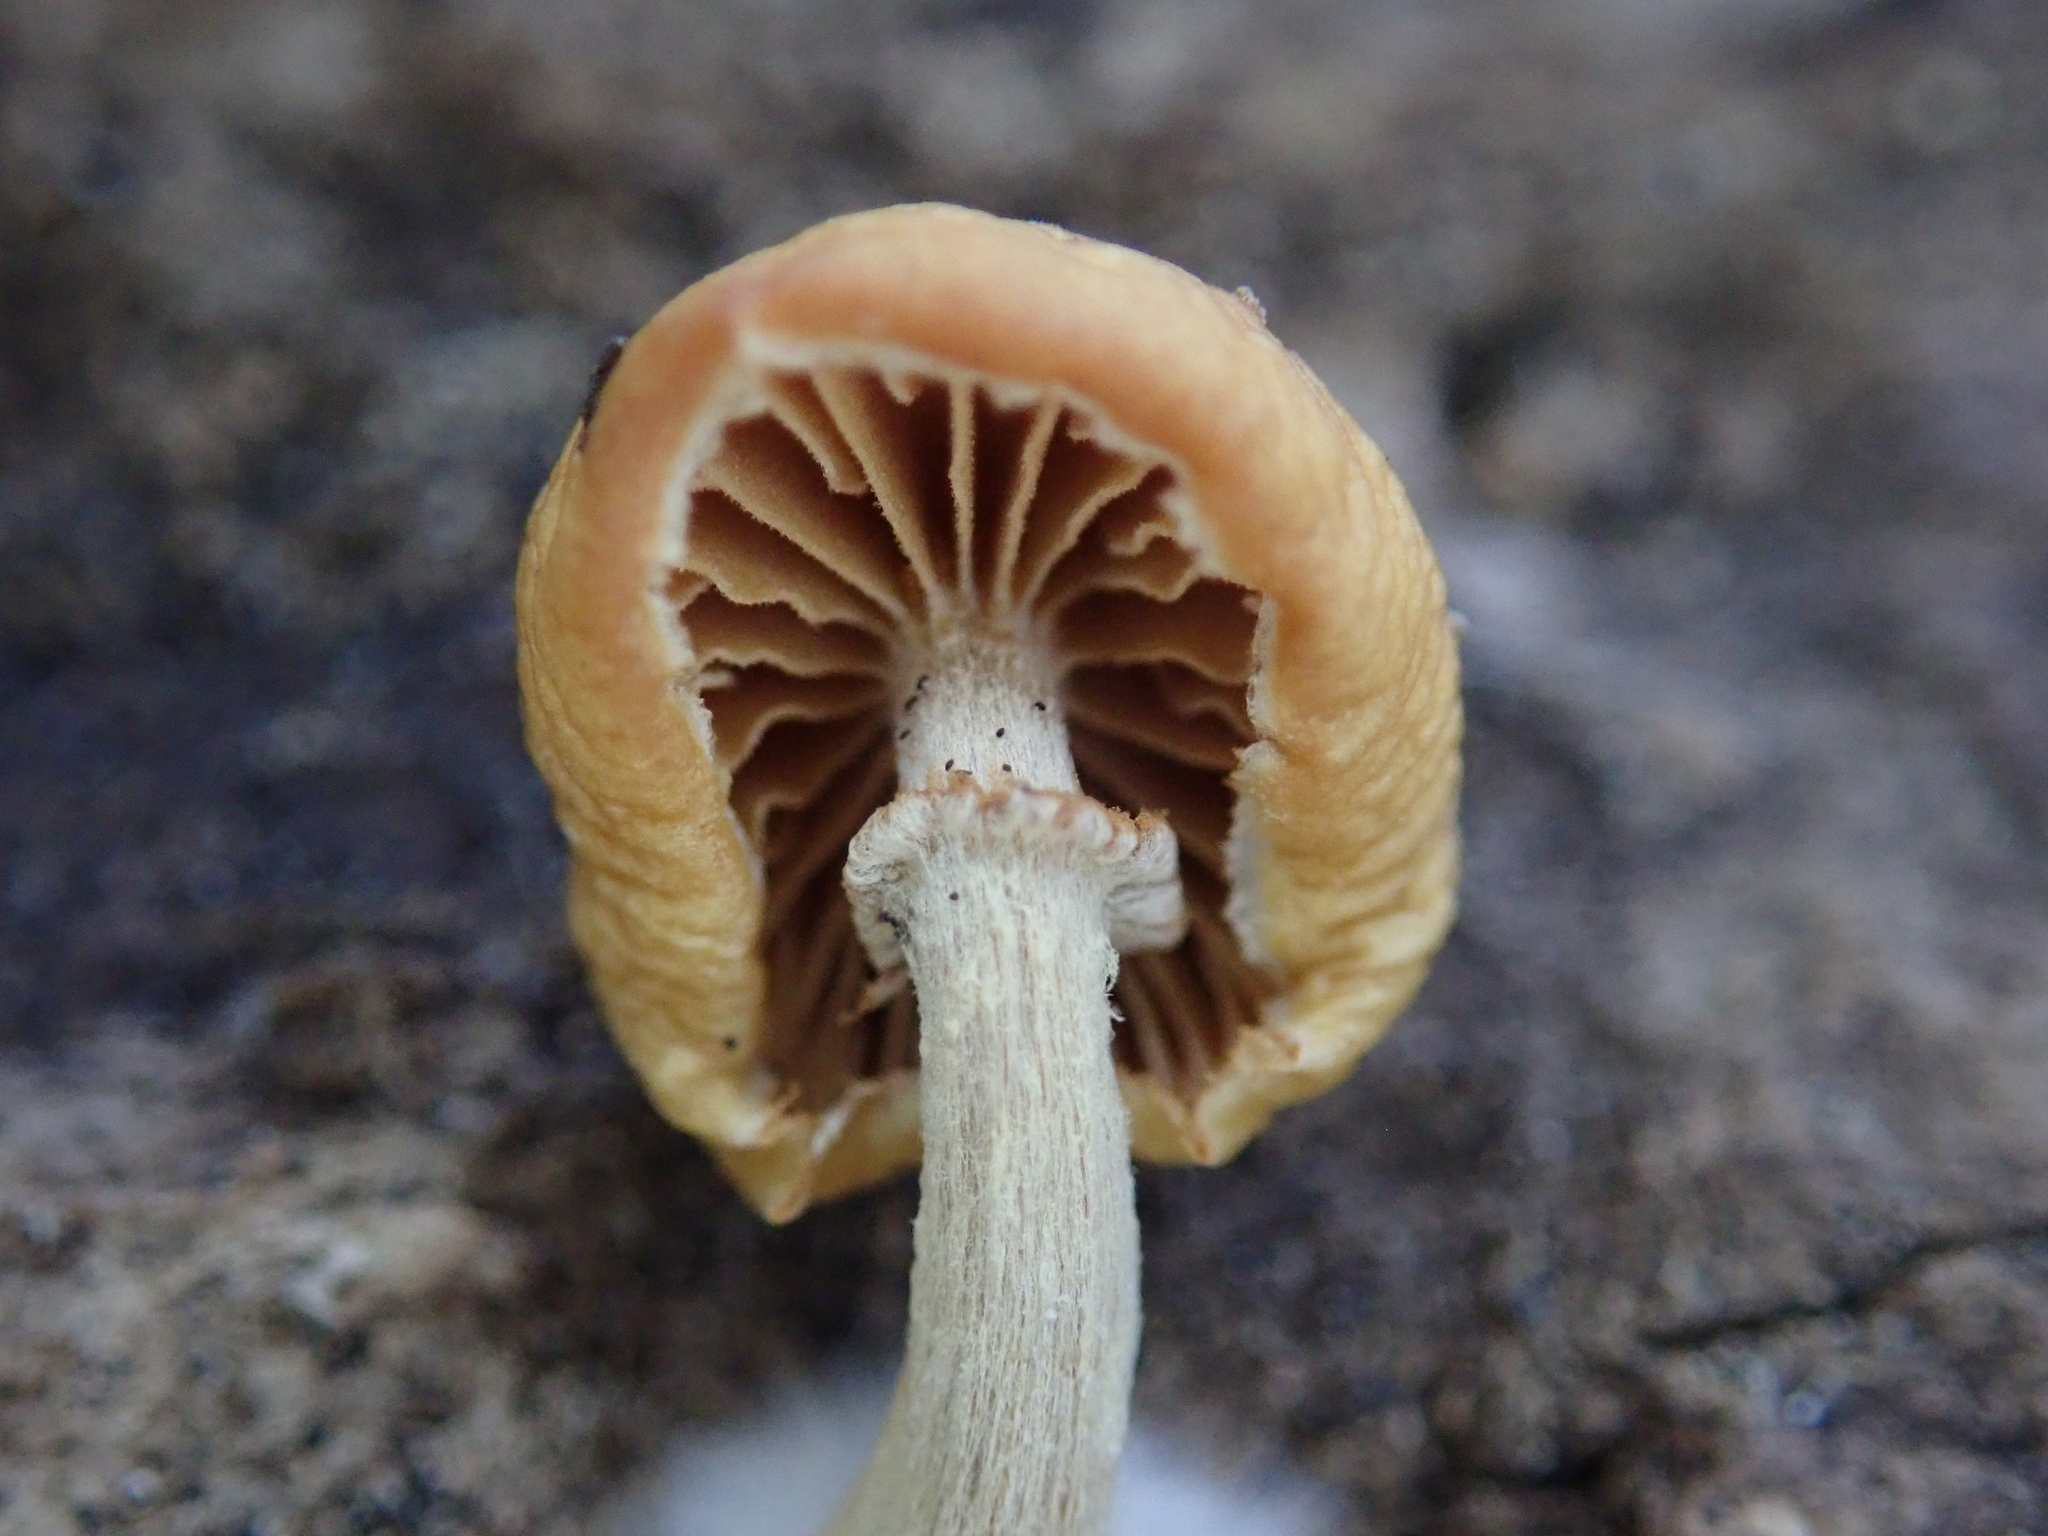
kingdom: Fungi
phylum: Basidiomycota
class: Agaricomycetes
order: Agaricales
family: Hymenogastraceae
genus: Galerina
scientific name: Galerina marginata
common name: Funeral bell
